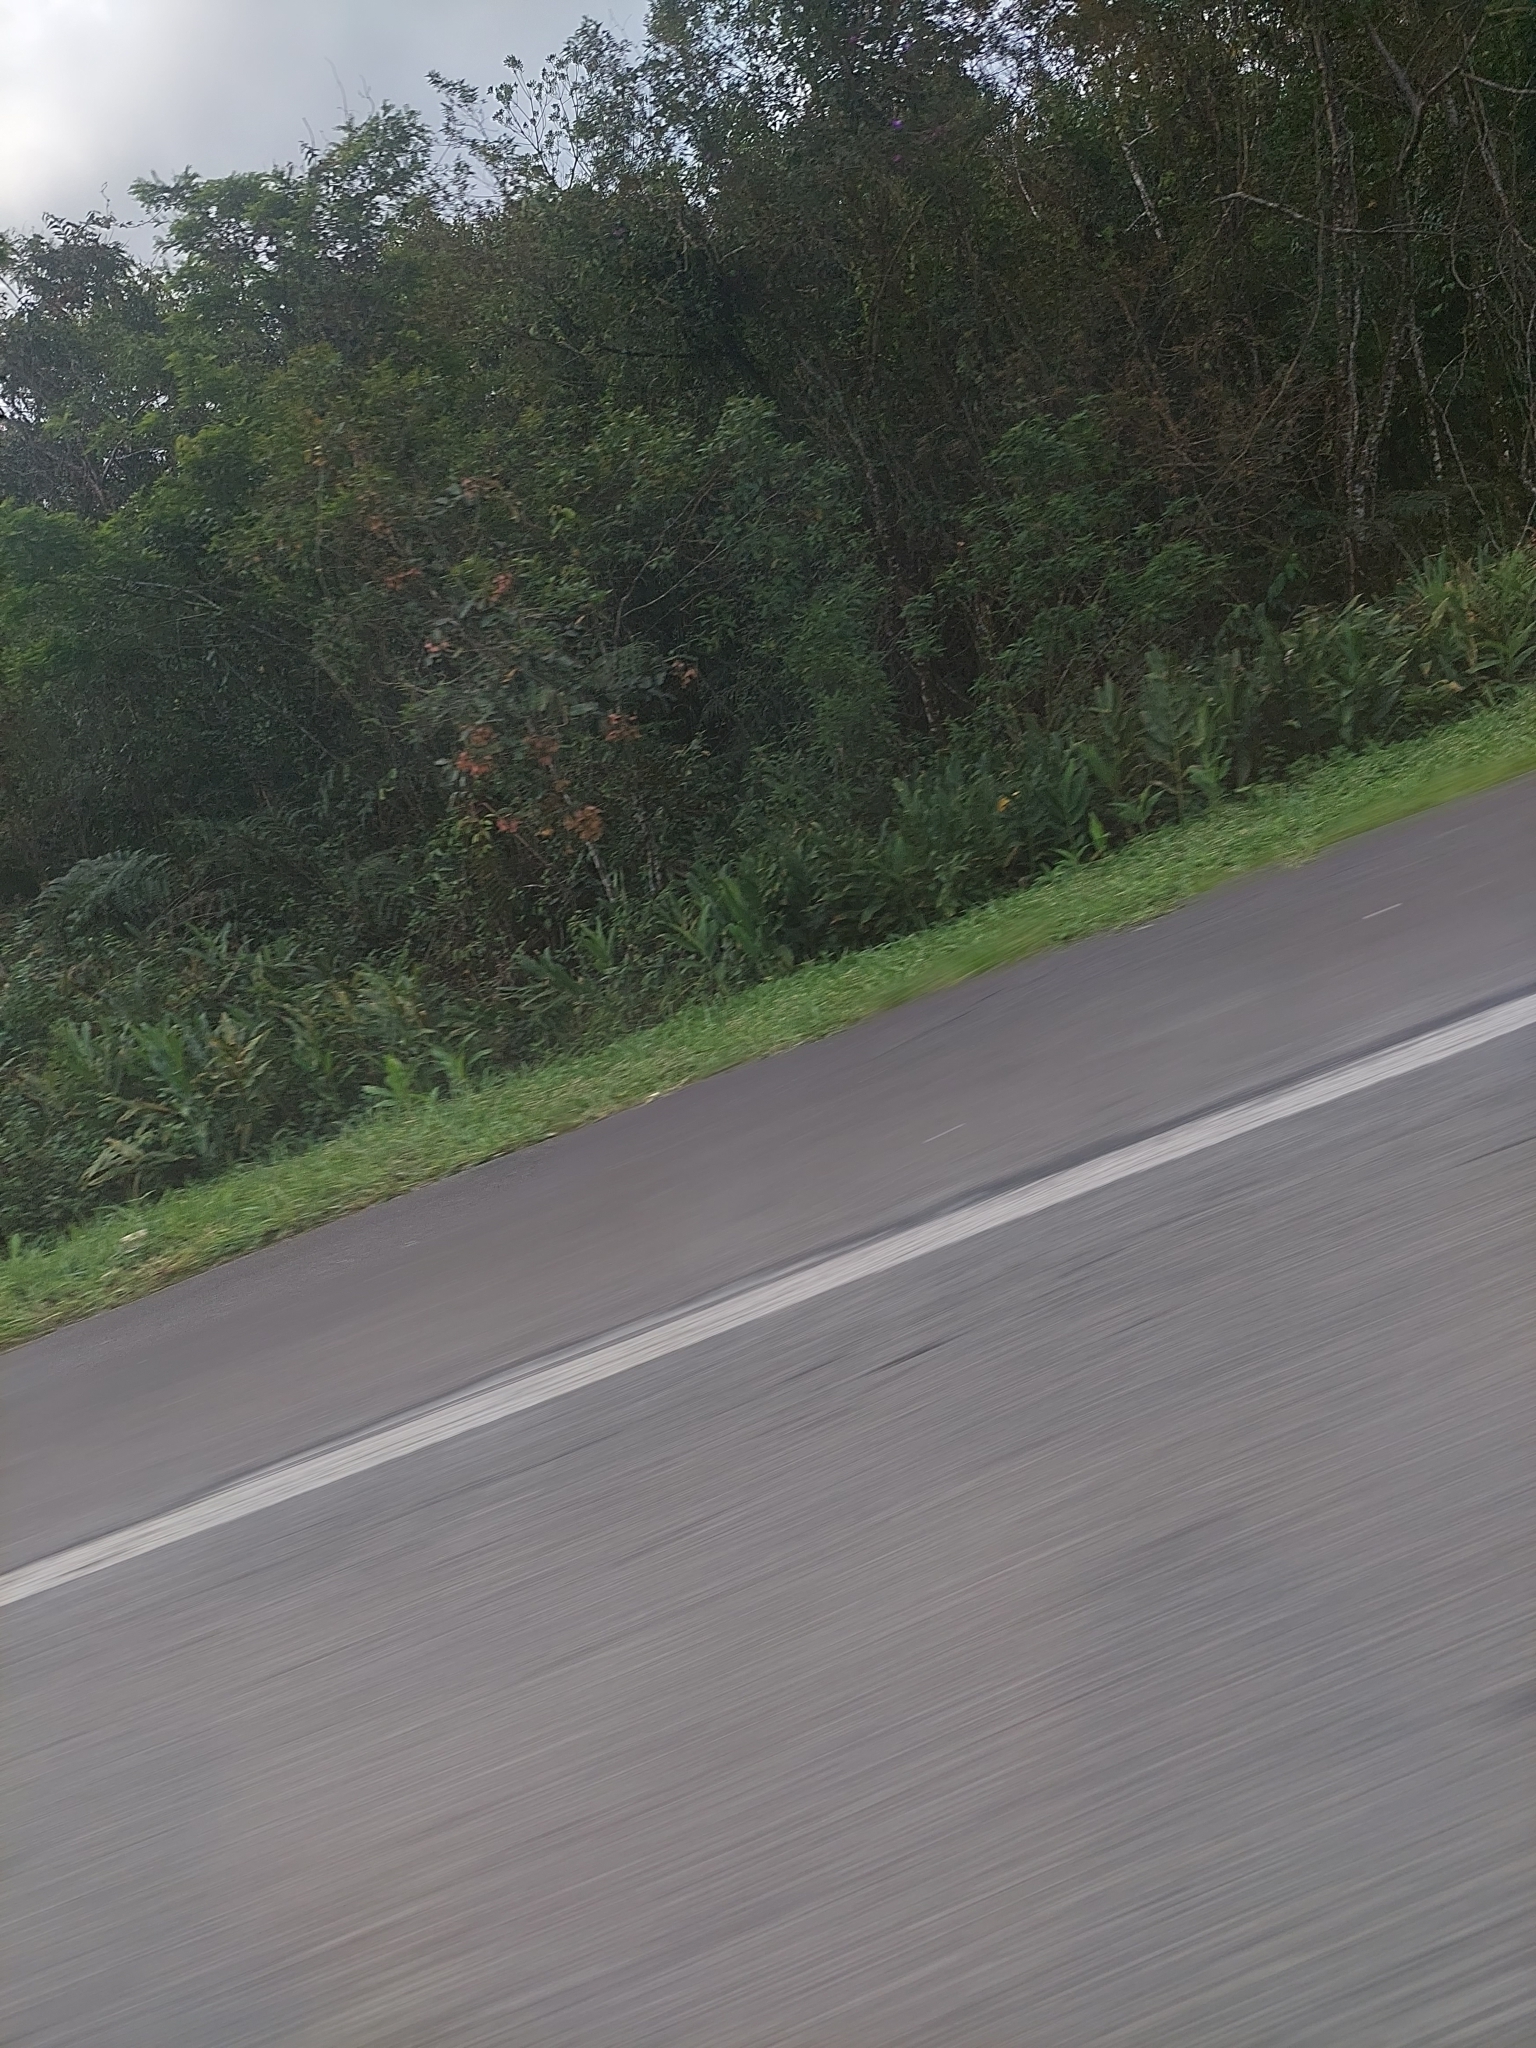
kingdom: Plantae
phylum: Tracheophyta
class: Liliopsida
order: Zingiberales
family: Zingiberaceae
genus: Hedychium
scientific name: Hedychium coronarium
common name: White garland-lily
